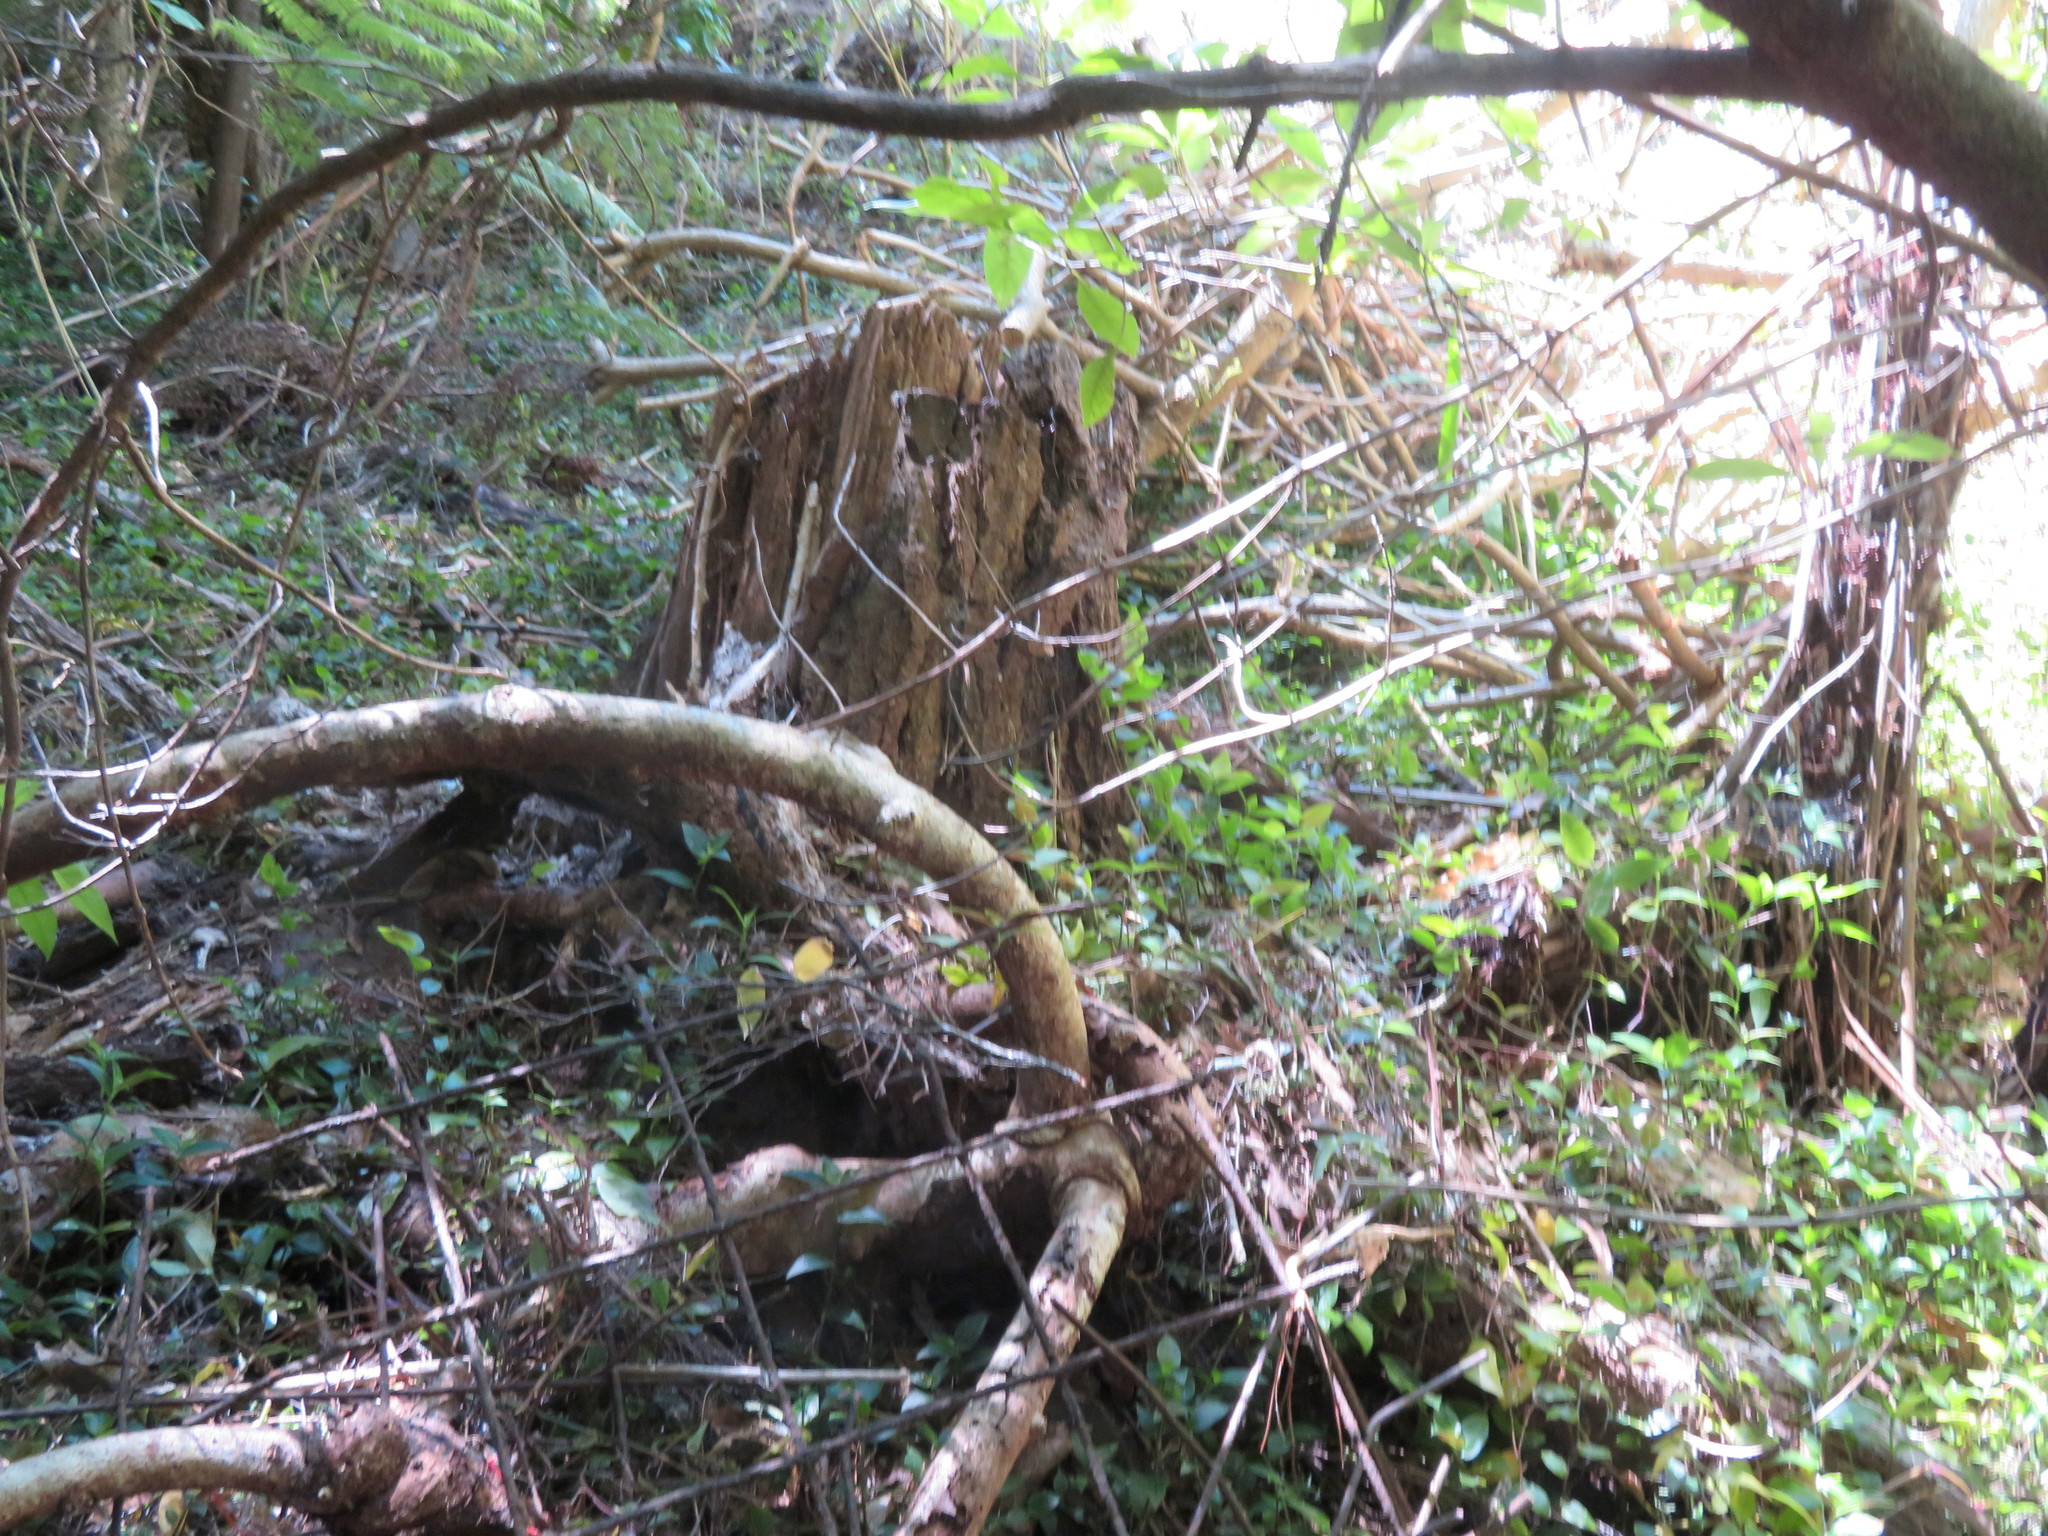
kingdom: Plantae
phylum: Tracheophyta
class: Liliopsida
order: Commelinales
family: Commelinaceae
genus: Tradescantia
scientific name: Tradescantia fluminensis
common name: Wandering-jew
